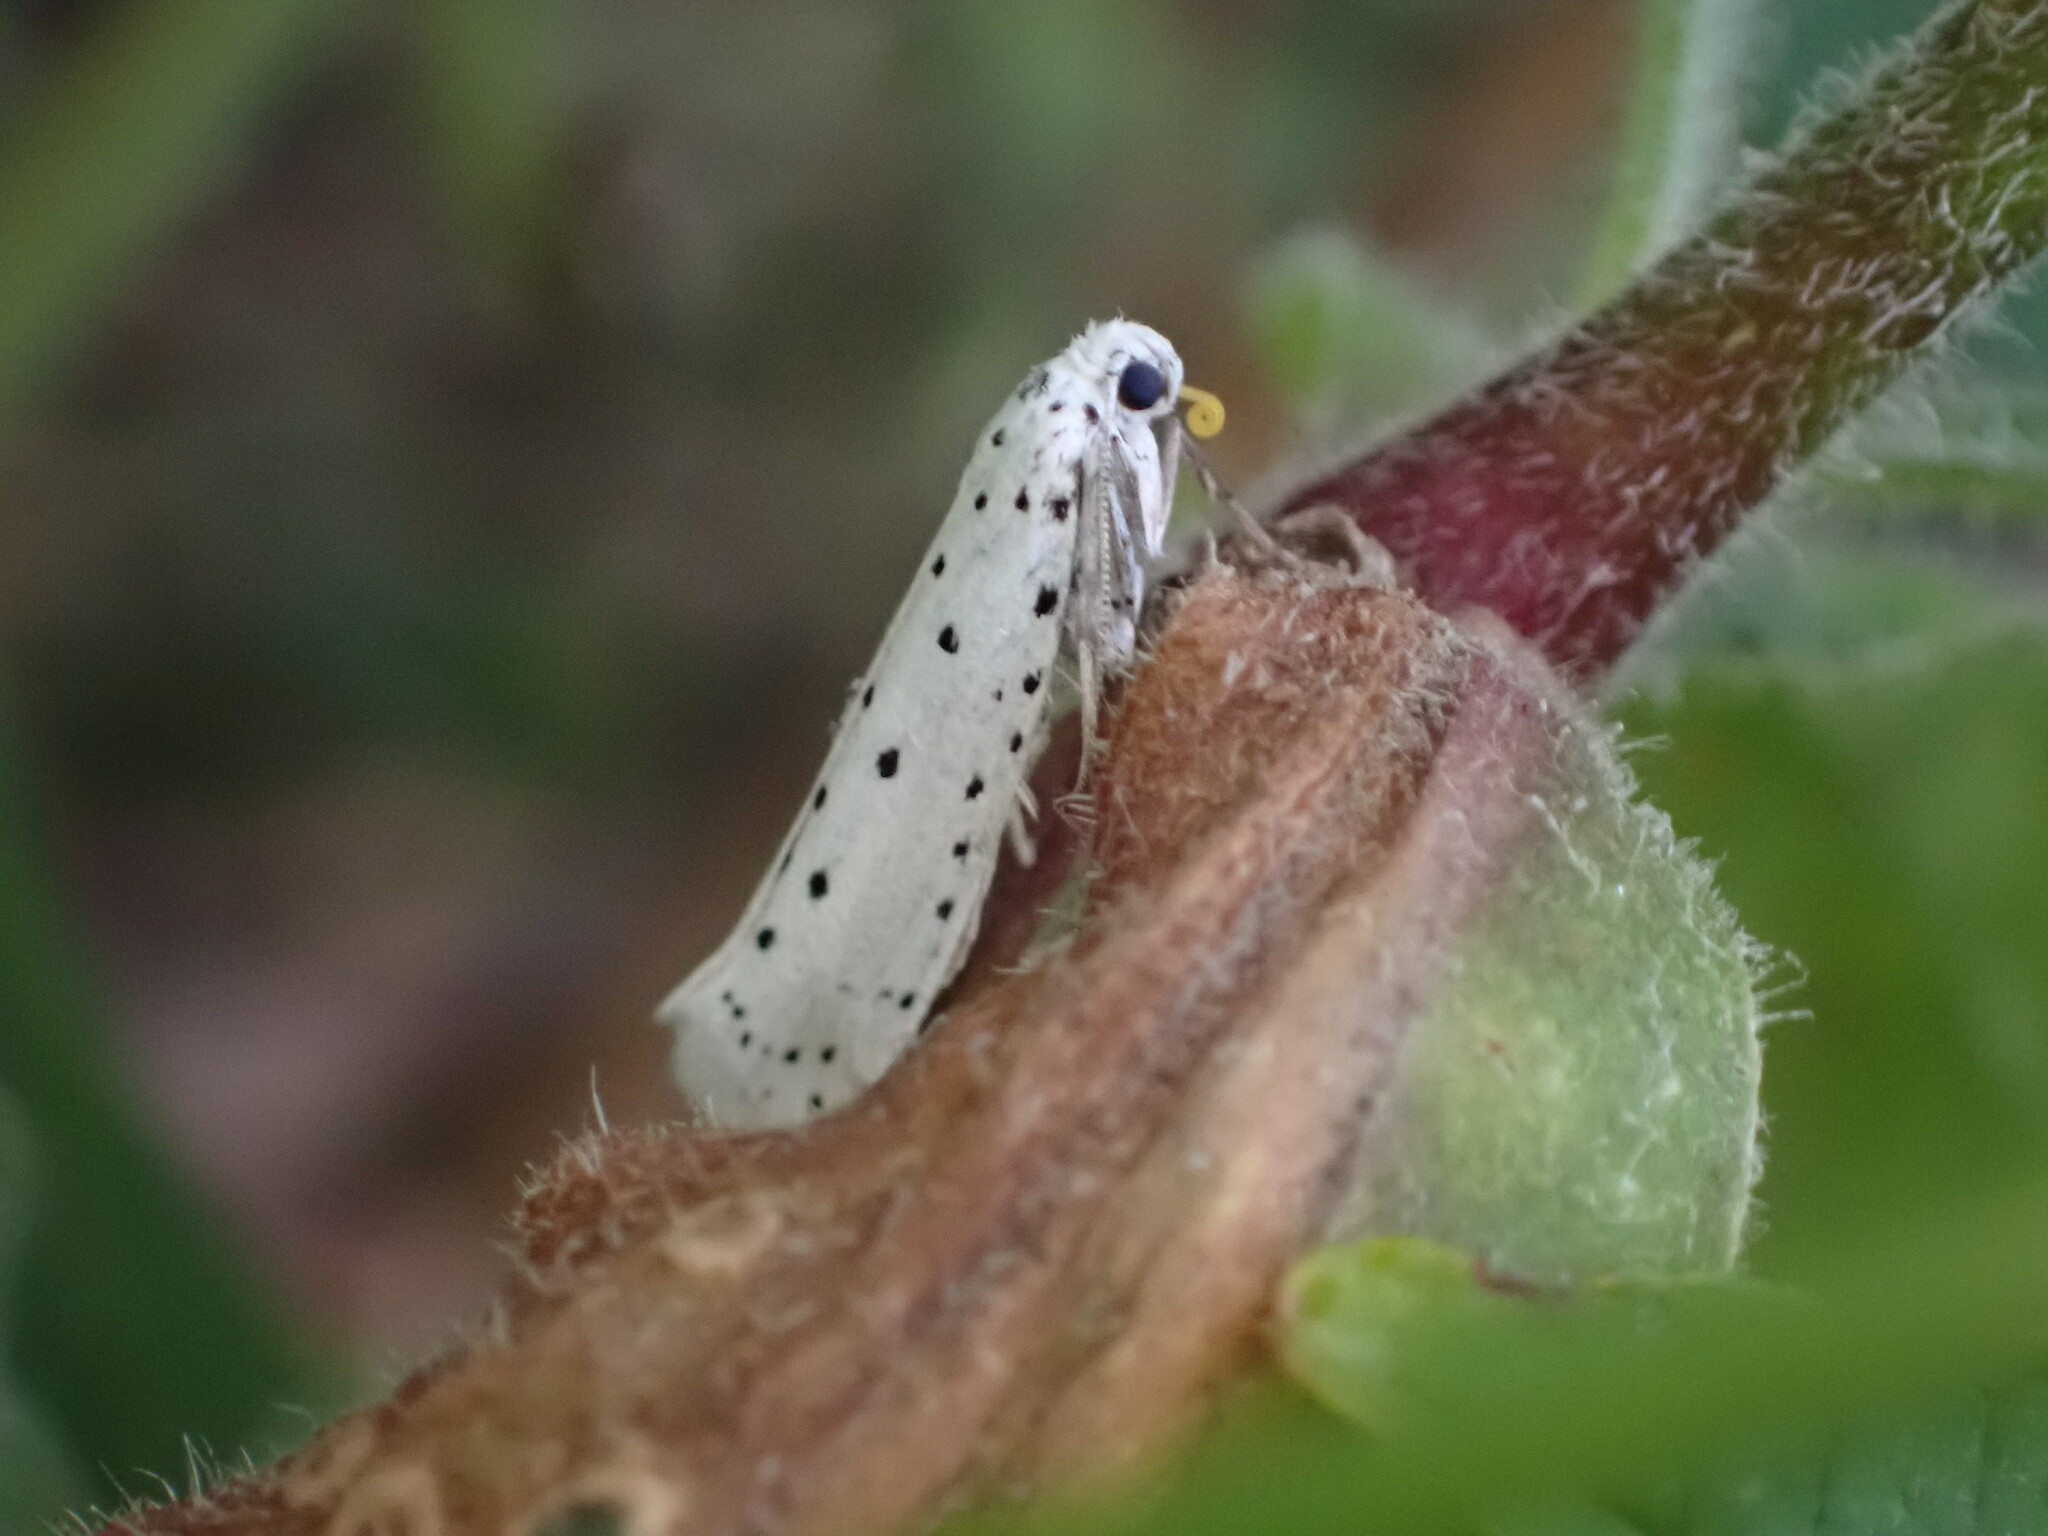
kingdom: Animalia
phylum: Arthropoda
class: Insecta
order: Lepidoptera
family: Yponomeutidae
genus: Yponomeuta
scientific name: Yponomeuta
